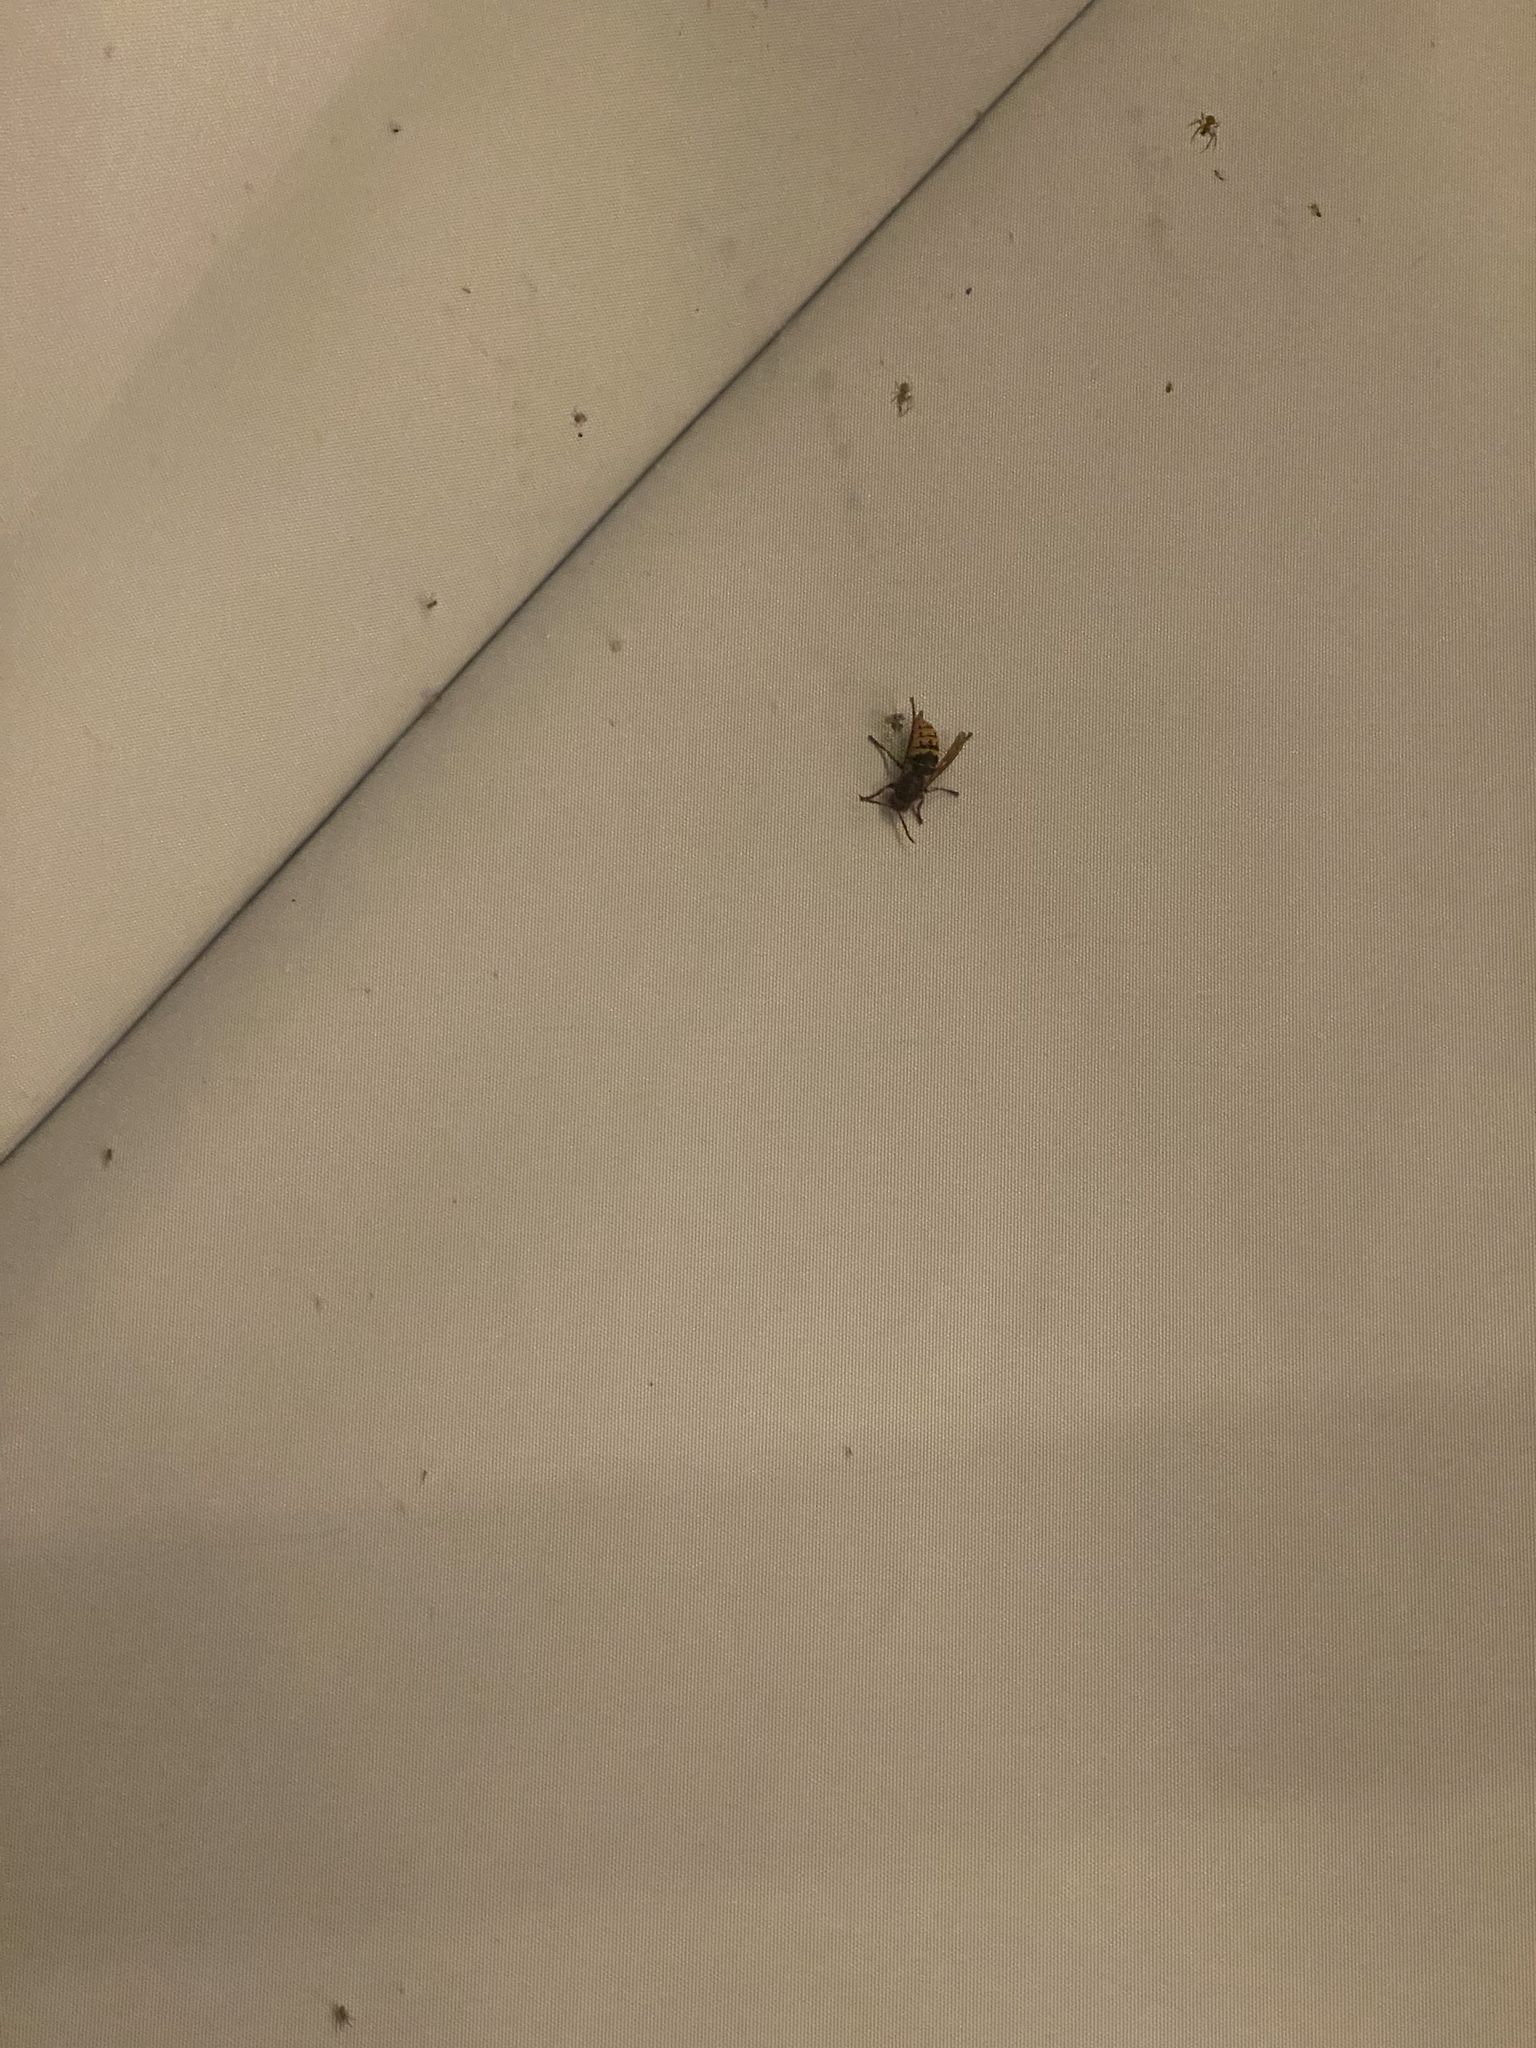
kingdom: Animalia
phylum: Arthropoda
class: Insecta
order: Hymenoptera
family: Vespidae
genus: Vespa
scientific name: Vespa crabro
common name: Hornet
